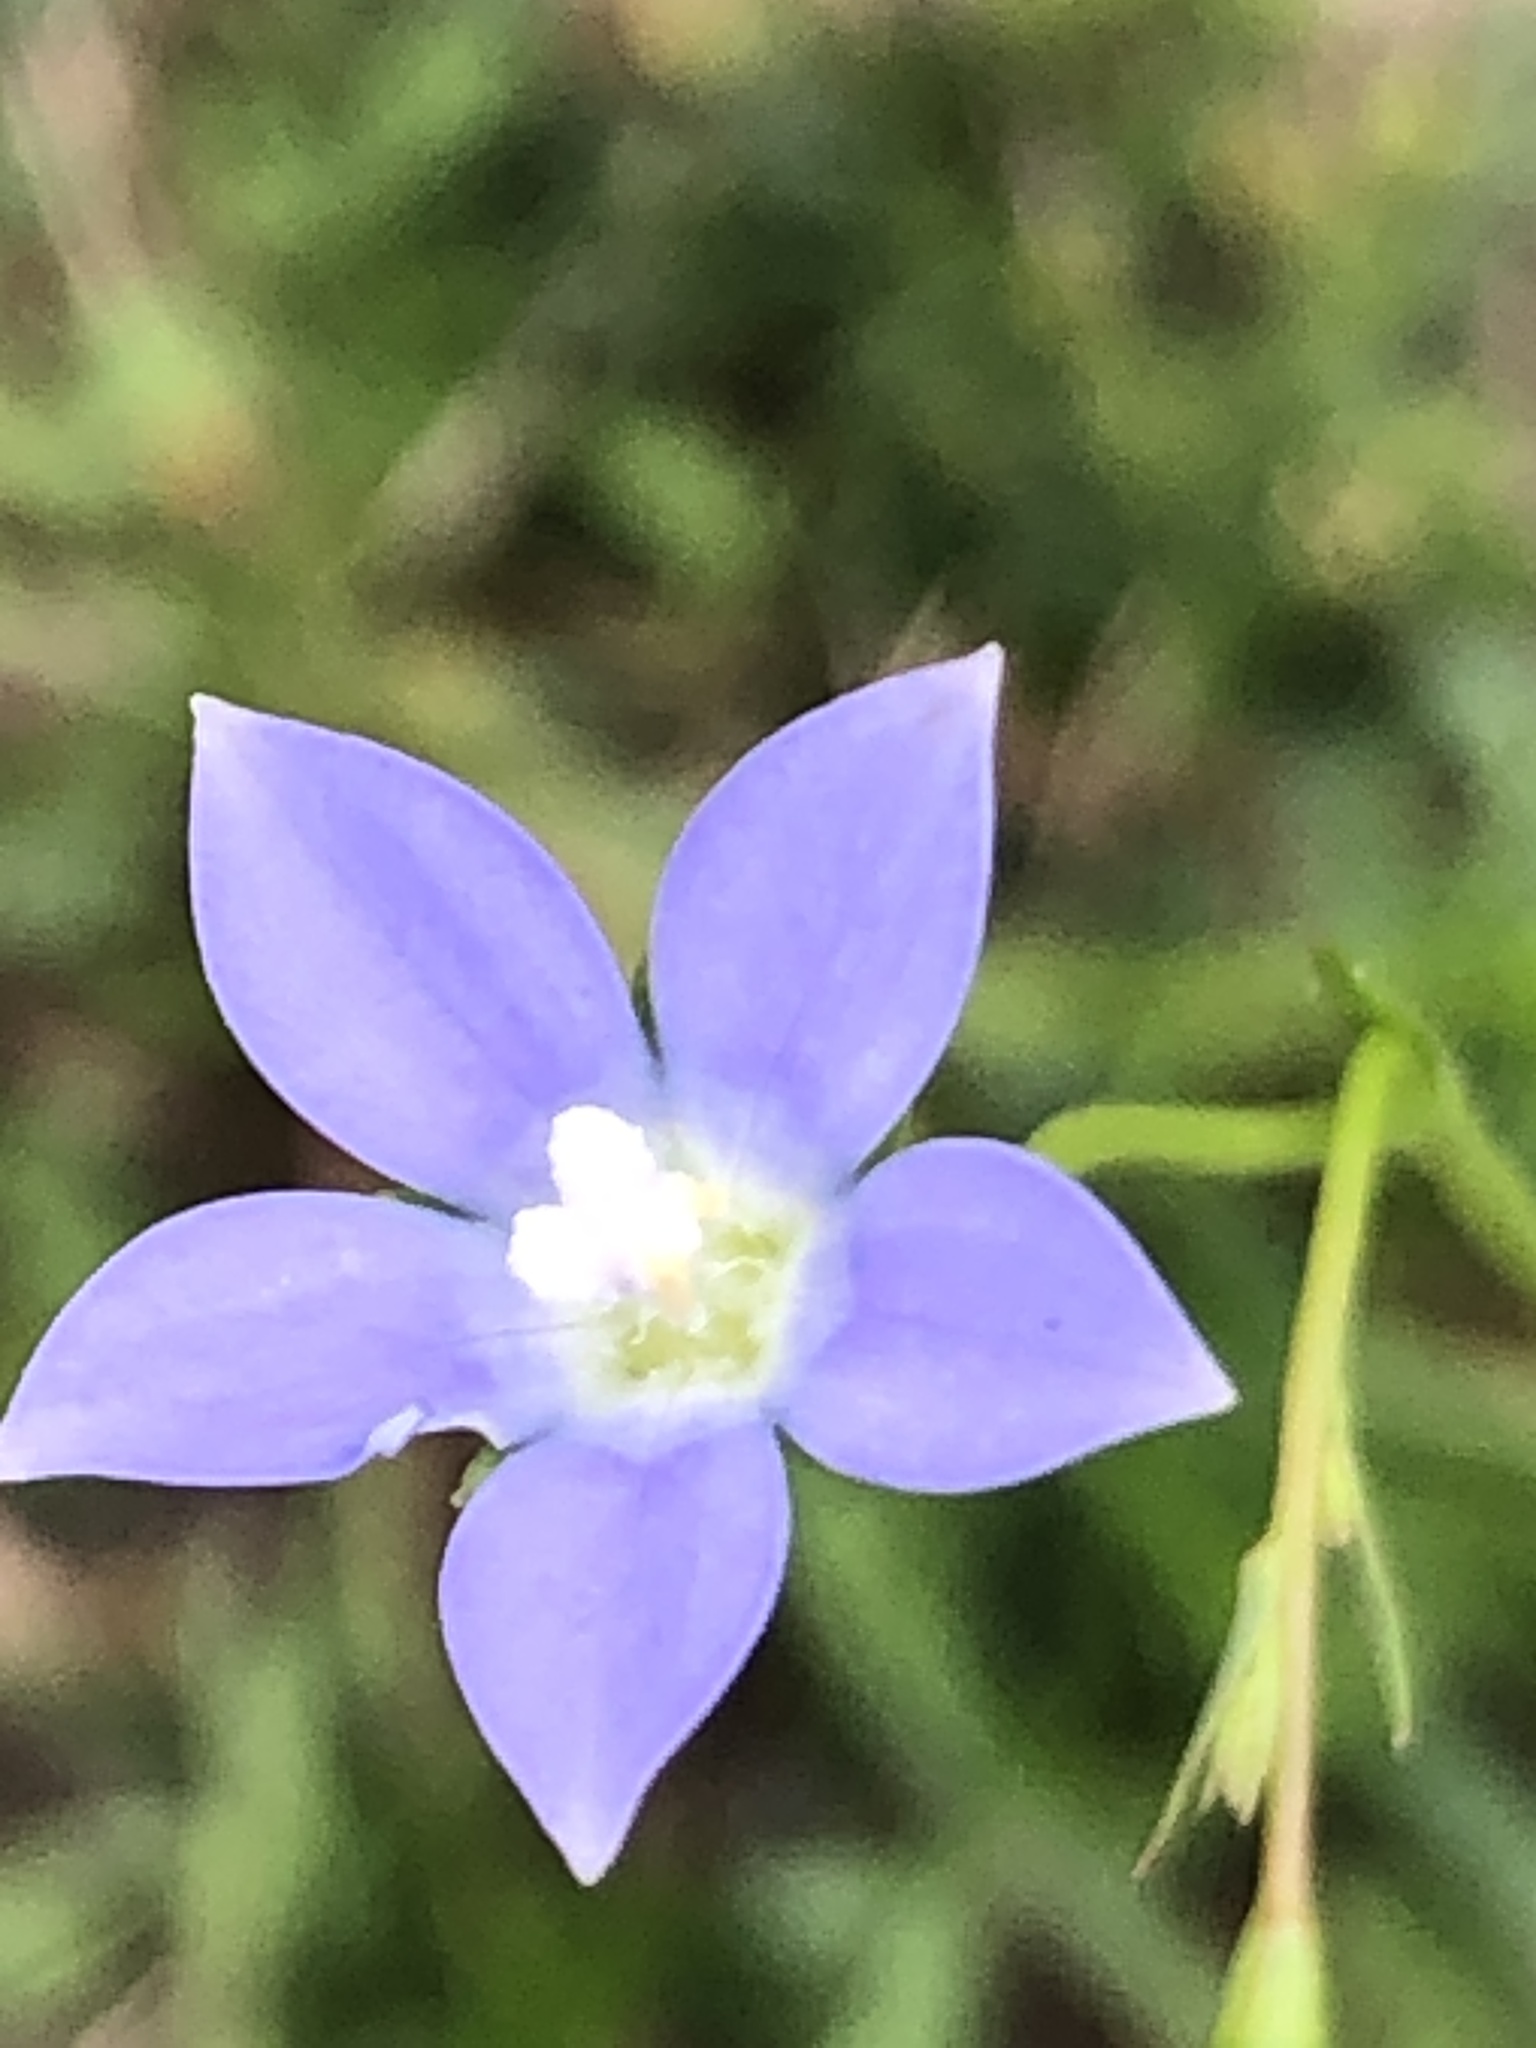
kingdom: Plantae
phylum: Tracheophyta
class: Magnoliopsida
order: Asterales
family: Campanulaceae
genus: Wahlenbergia
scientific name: Wahlenbergia marginata
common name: Southern rockbell
